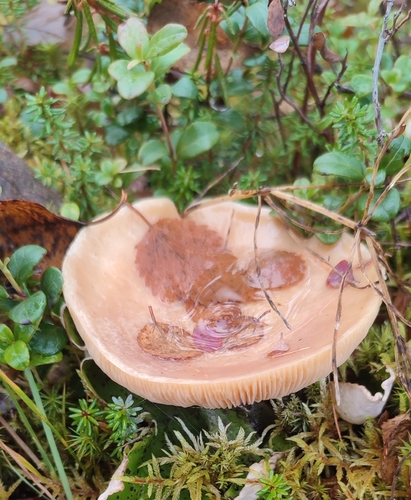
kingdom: Fungi
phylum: Basidiomycota
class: Agaricomycetes
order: Russulales
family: Russulaceae
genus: Lactarius
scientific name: Lactarius trivialis
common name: Tacked milkcap
